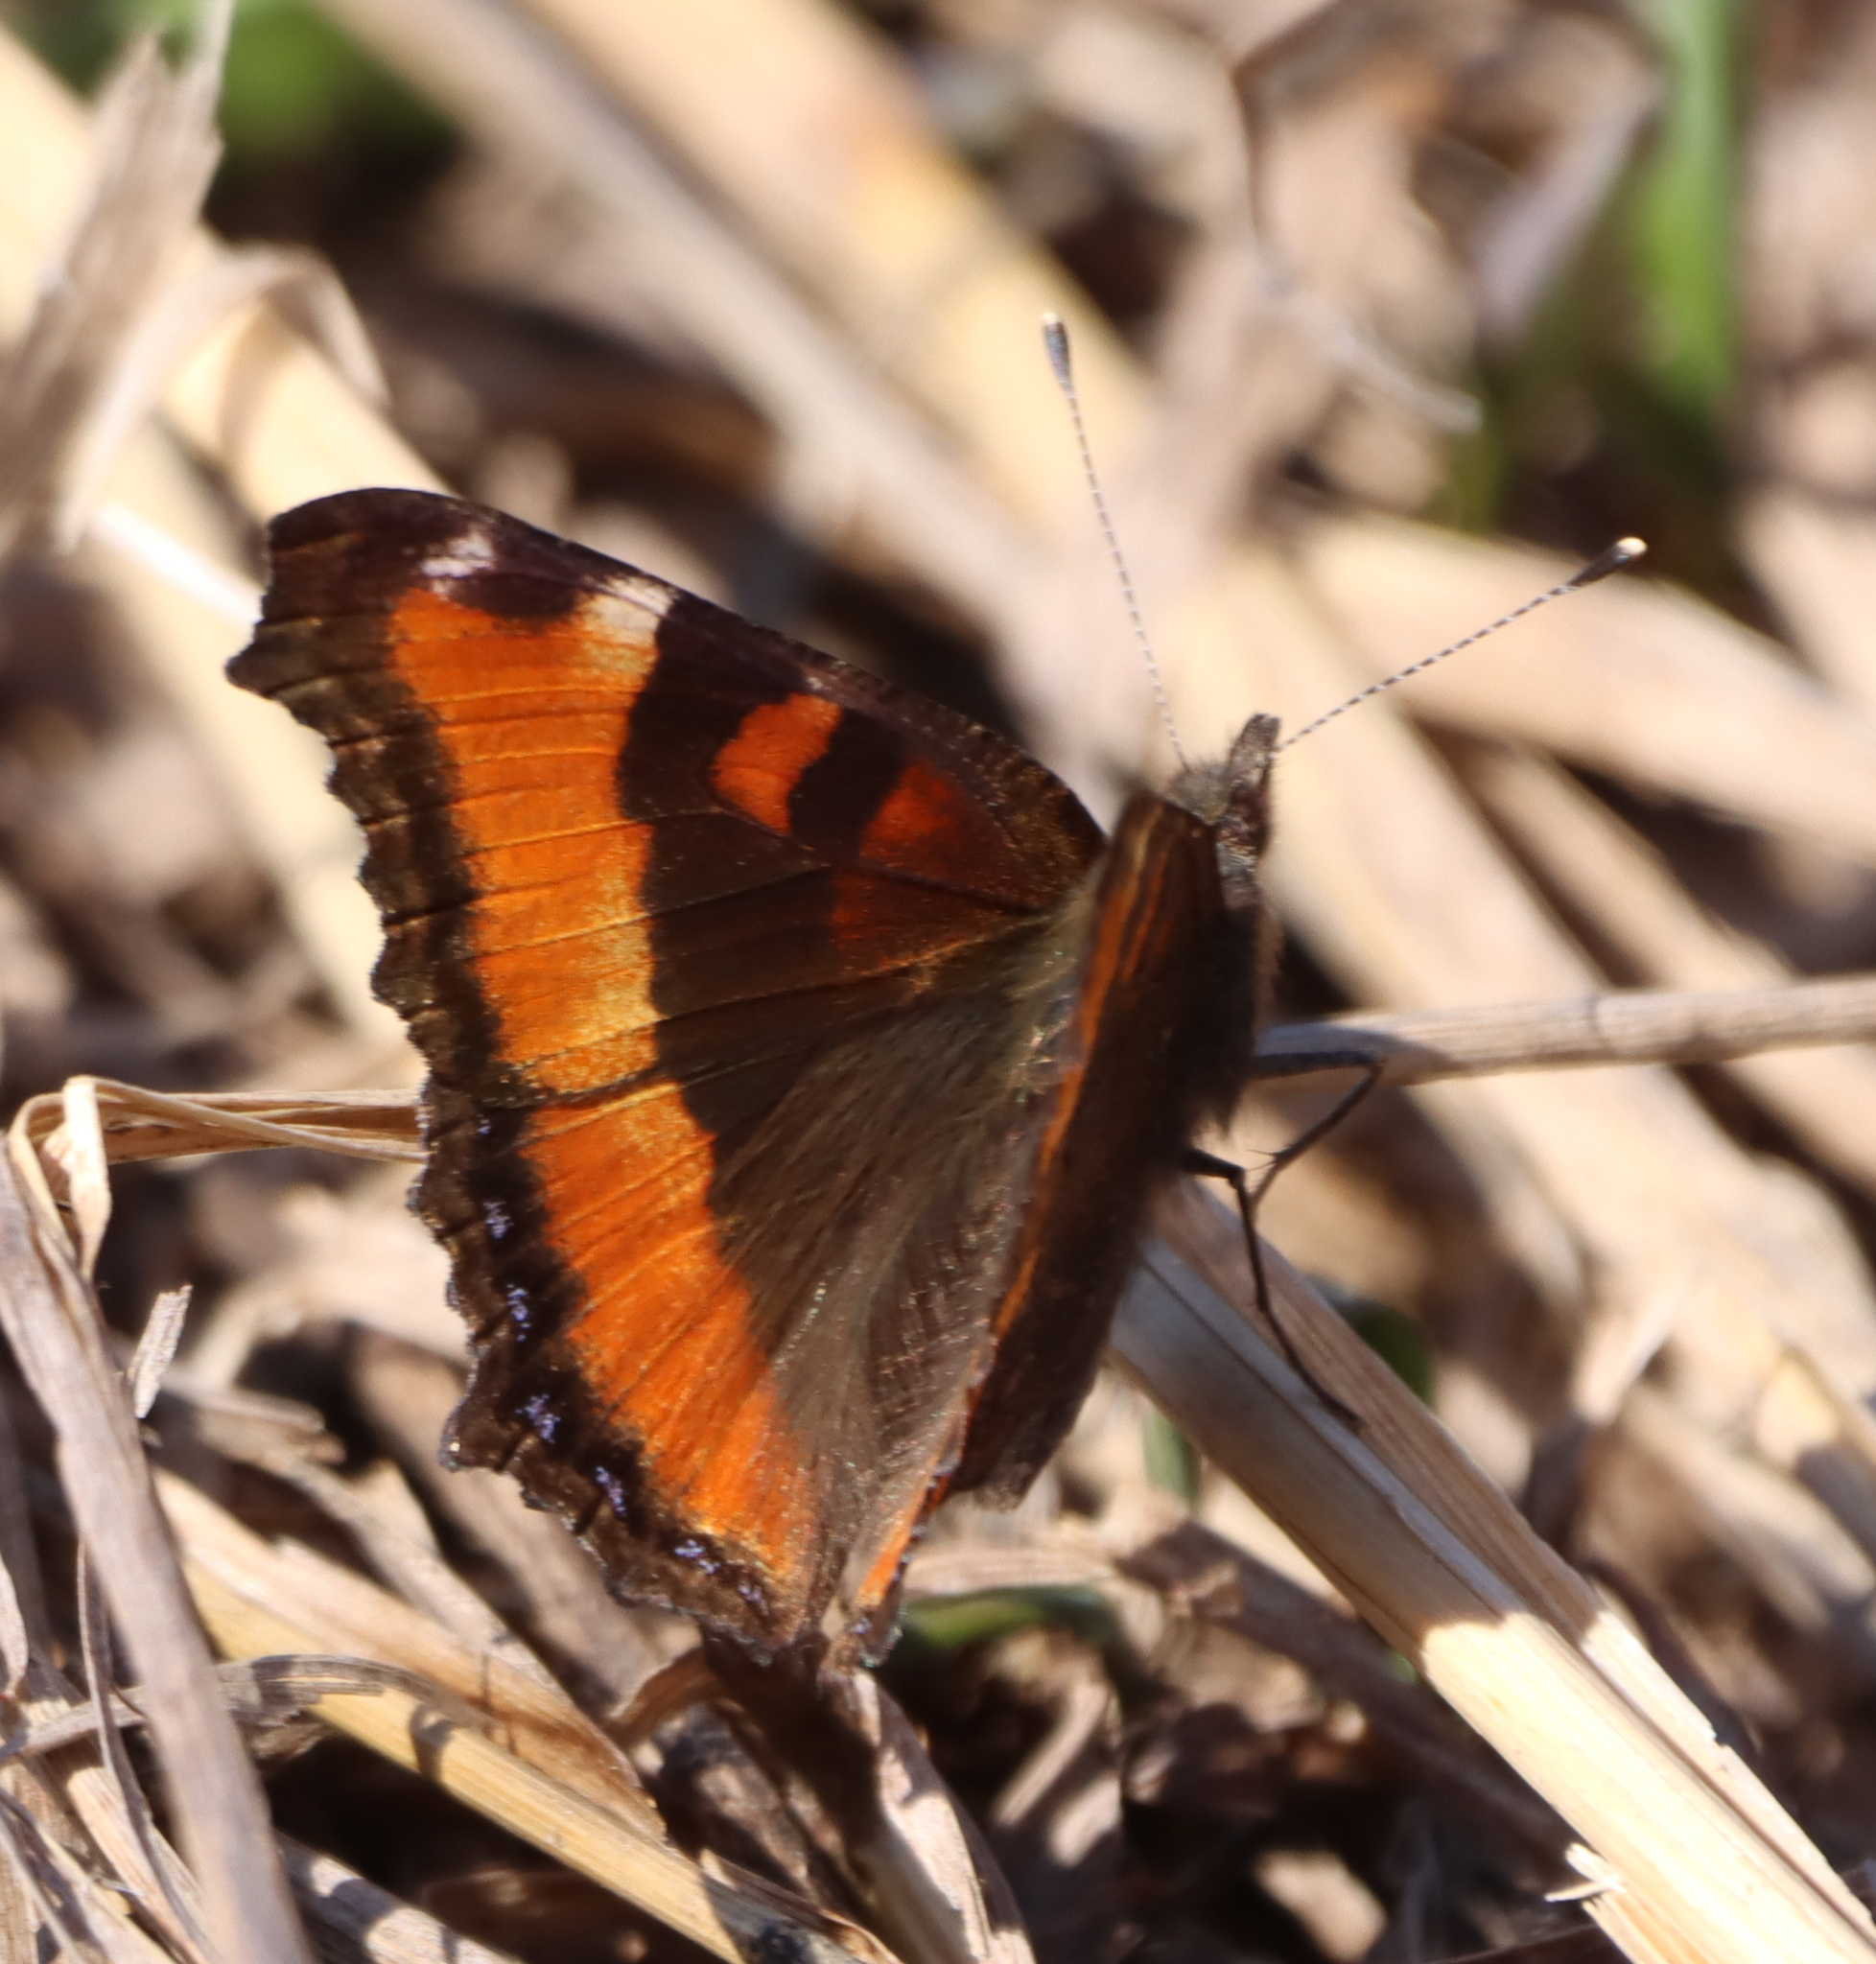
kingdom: Animalia
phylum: Arthropoda
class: Insecta
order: Lepidoptera
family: Nymphalidae
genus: Aglais
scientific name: Aglais milberti
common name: Milbert's tortoiseshell
